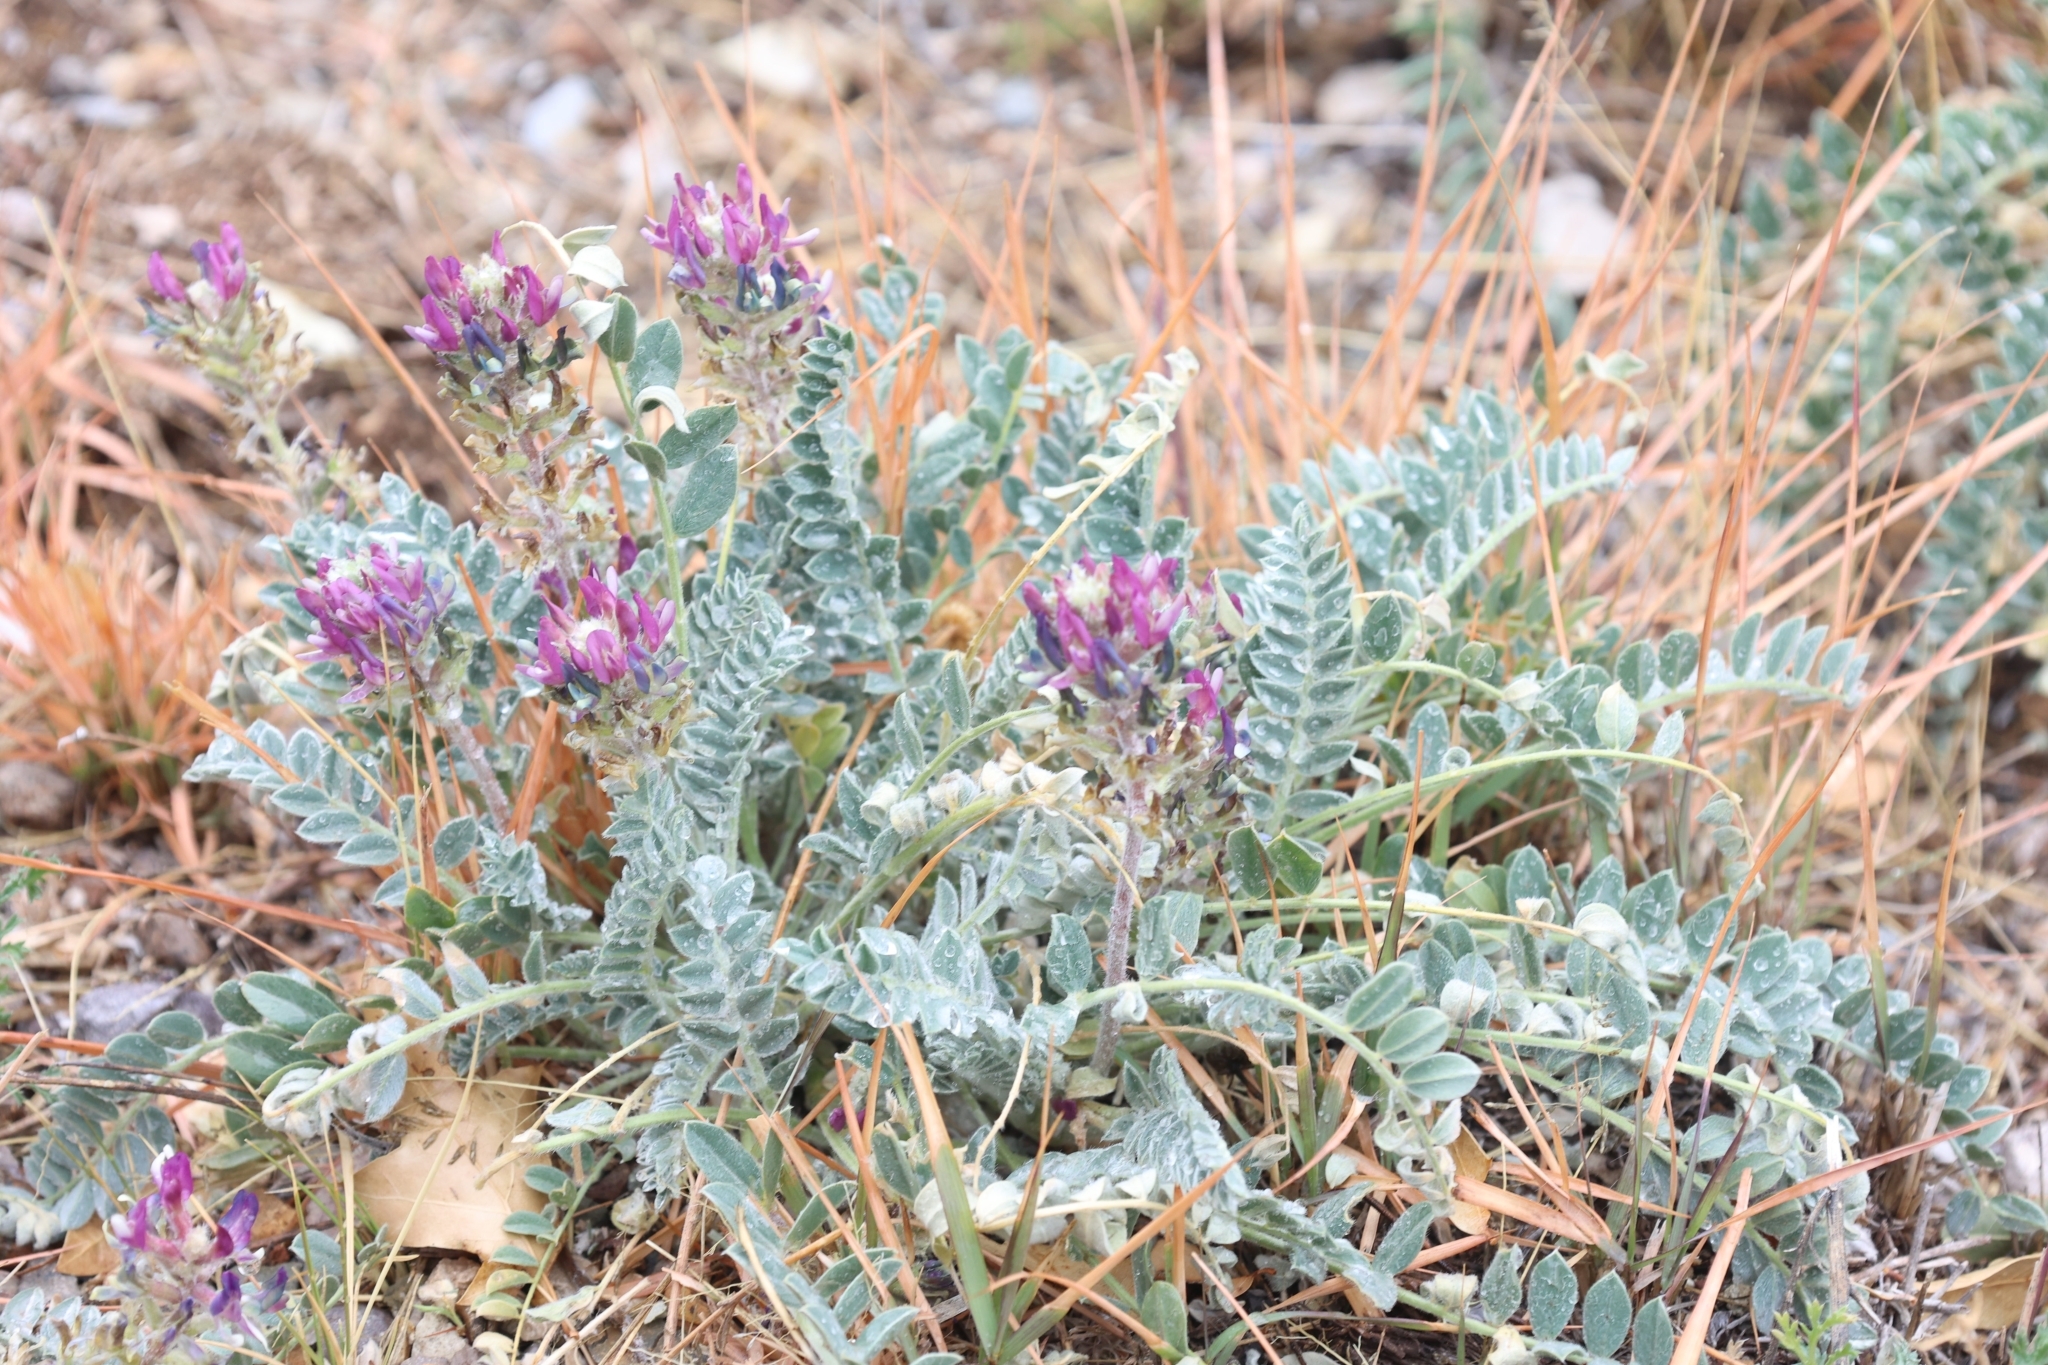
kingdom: Plantae
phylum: Tracheophyta
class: Magnoliopsida
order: Fabales
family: Fabaceae
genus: Astragalus
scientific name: Astragalus mollissimus
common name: Woolly locoweed
